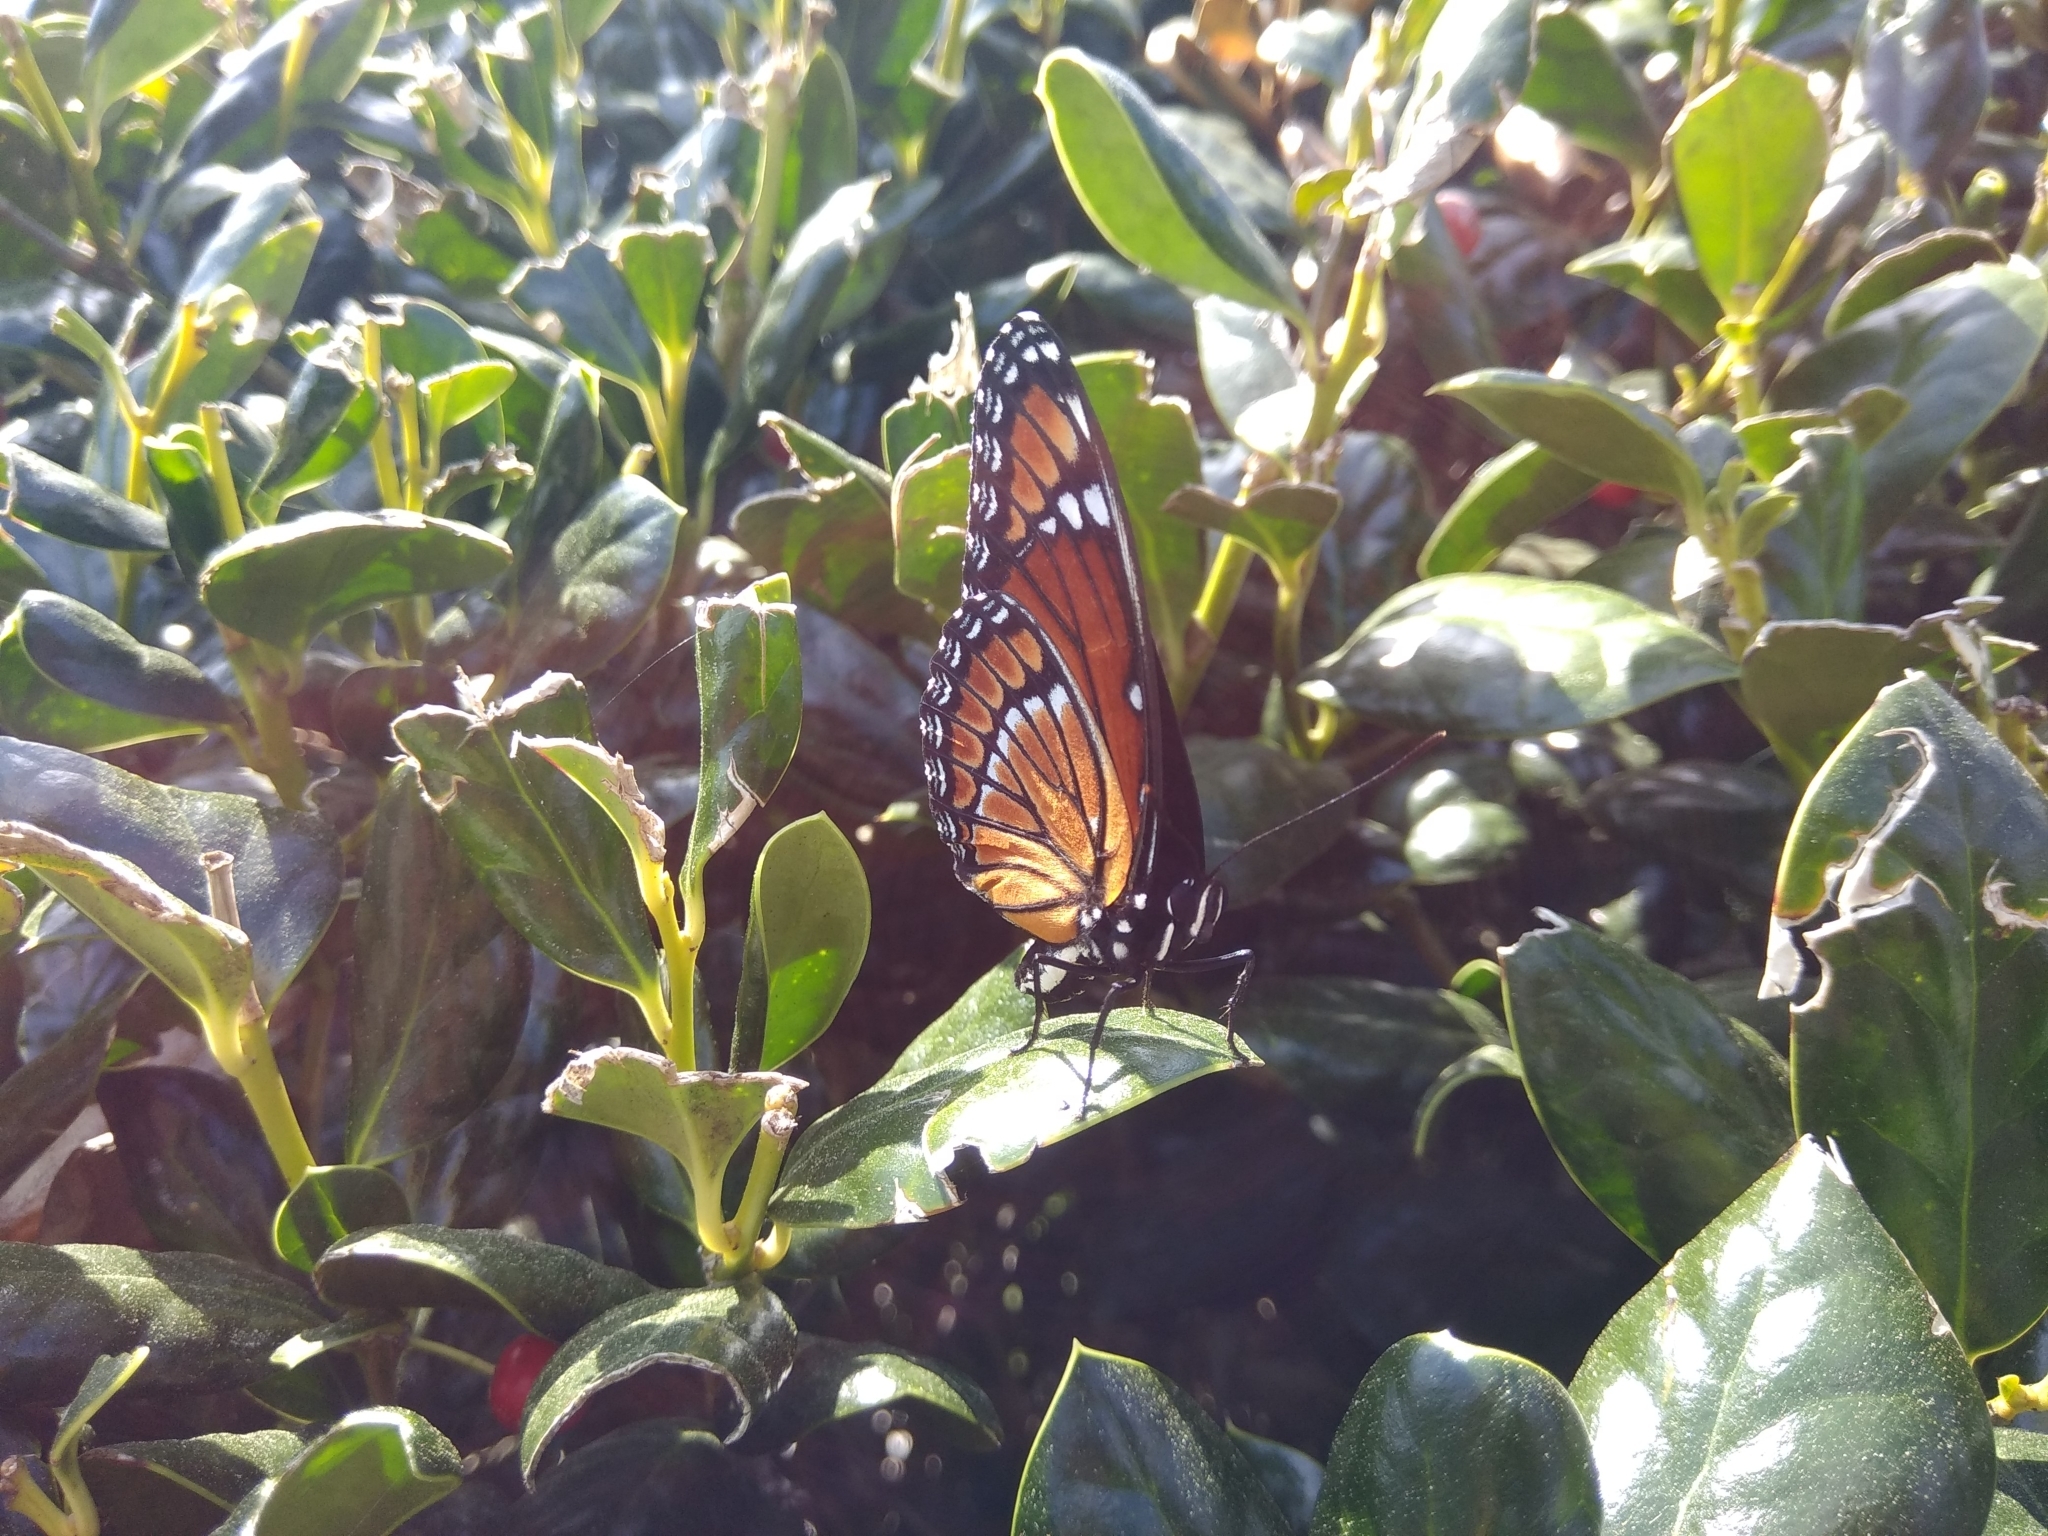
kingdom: Animalia
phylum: Arthropoda
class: Insecta
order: Lepidoptera
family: Nymphalidae
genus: Limenitis
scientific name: Limenitis archippus
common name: Viceroy
